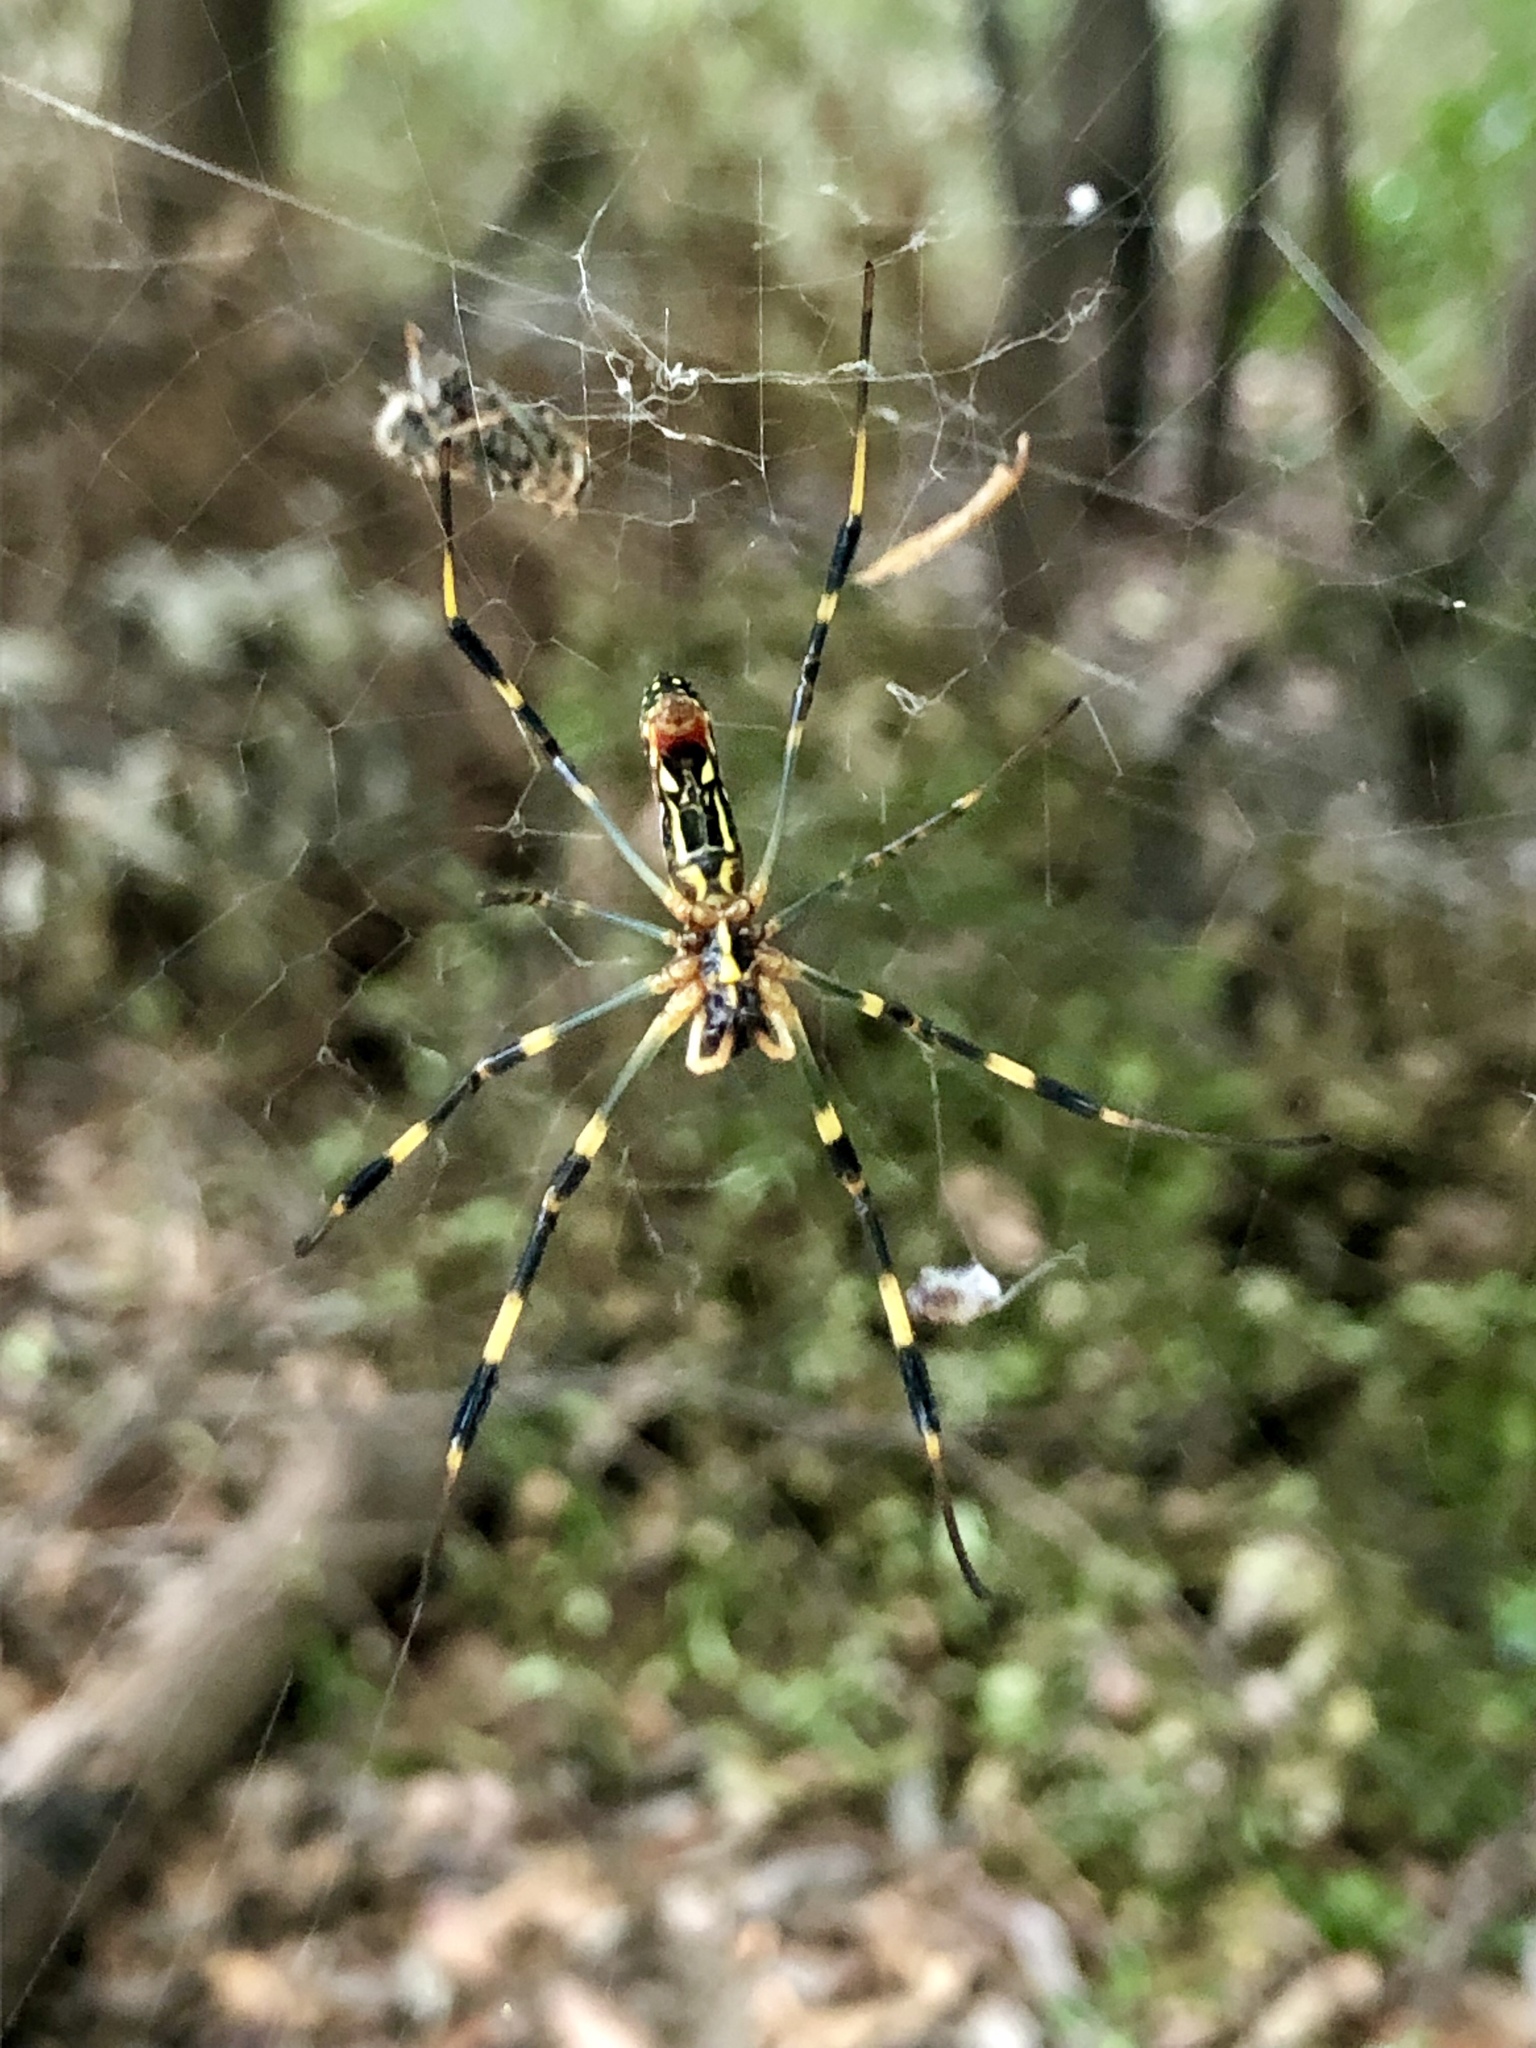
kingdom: Animalia
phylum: Arthropoda
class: Arachnida
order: Araneae
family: Araneidae
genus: Trichonephila
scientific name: Trichonephila clavata
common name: Jorō spider
